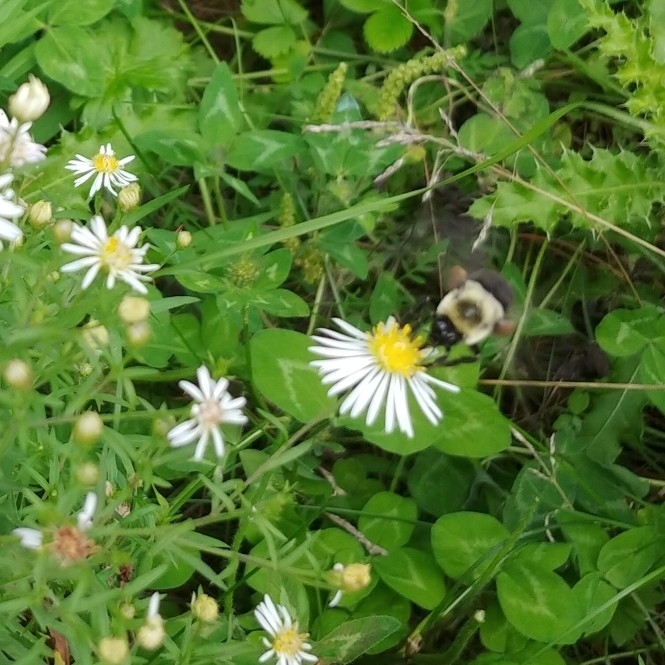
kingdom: Animalia
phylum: Arthropoda
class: Insecta
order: Hymenoptera
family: Apidae
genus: Bombus
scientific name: Bombus impatiens
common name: Common eastern bumble bee
